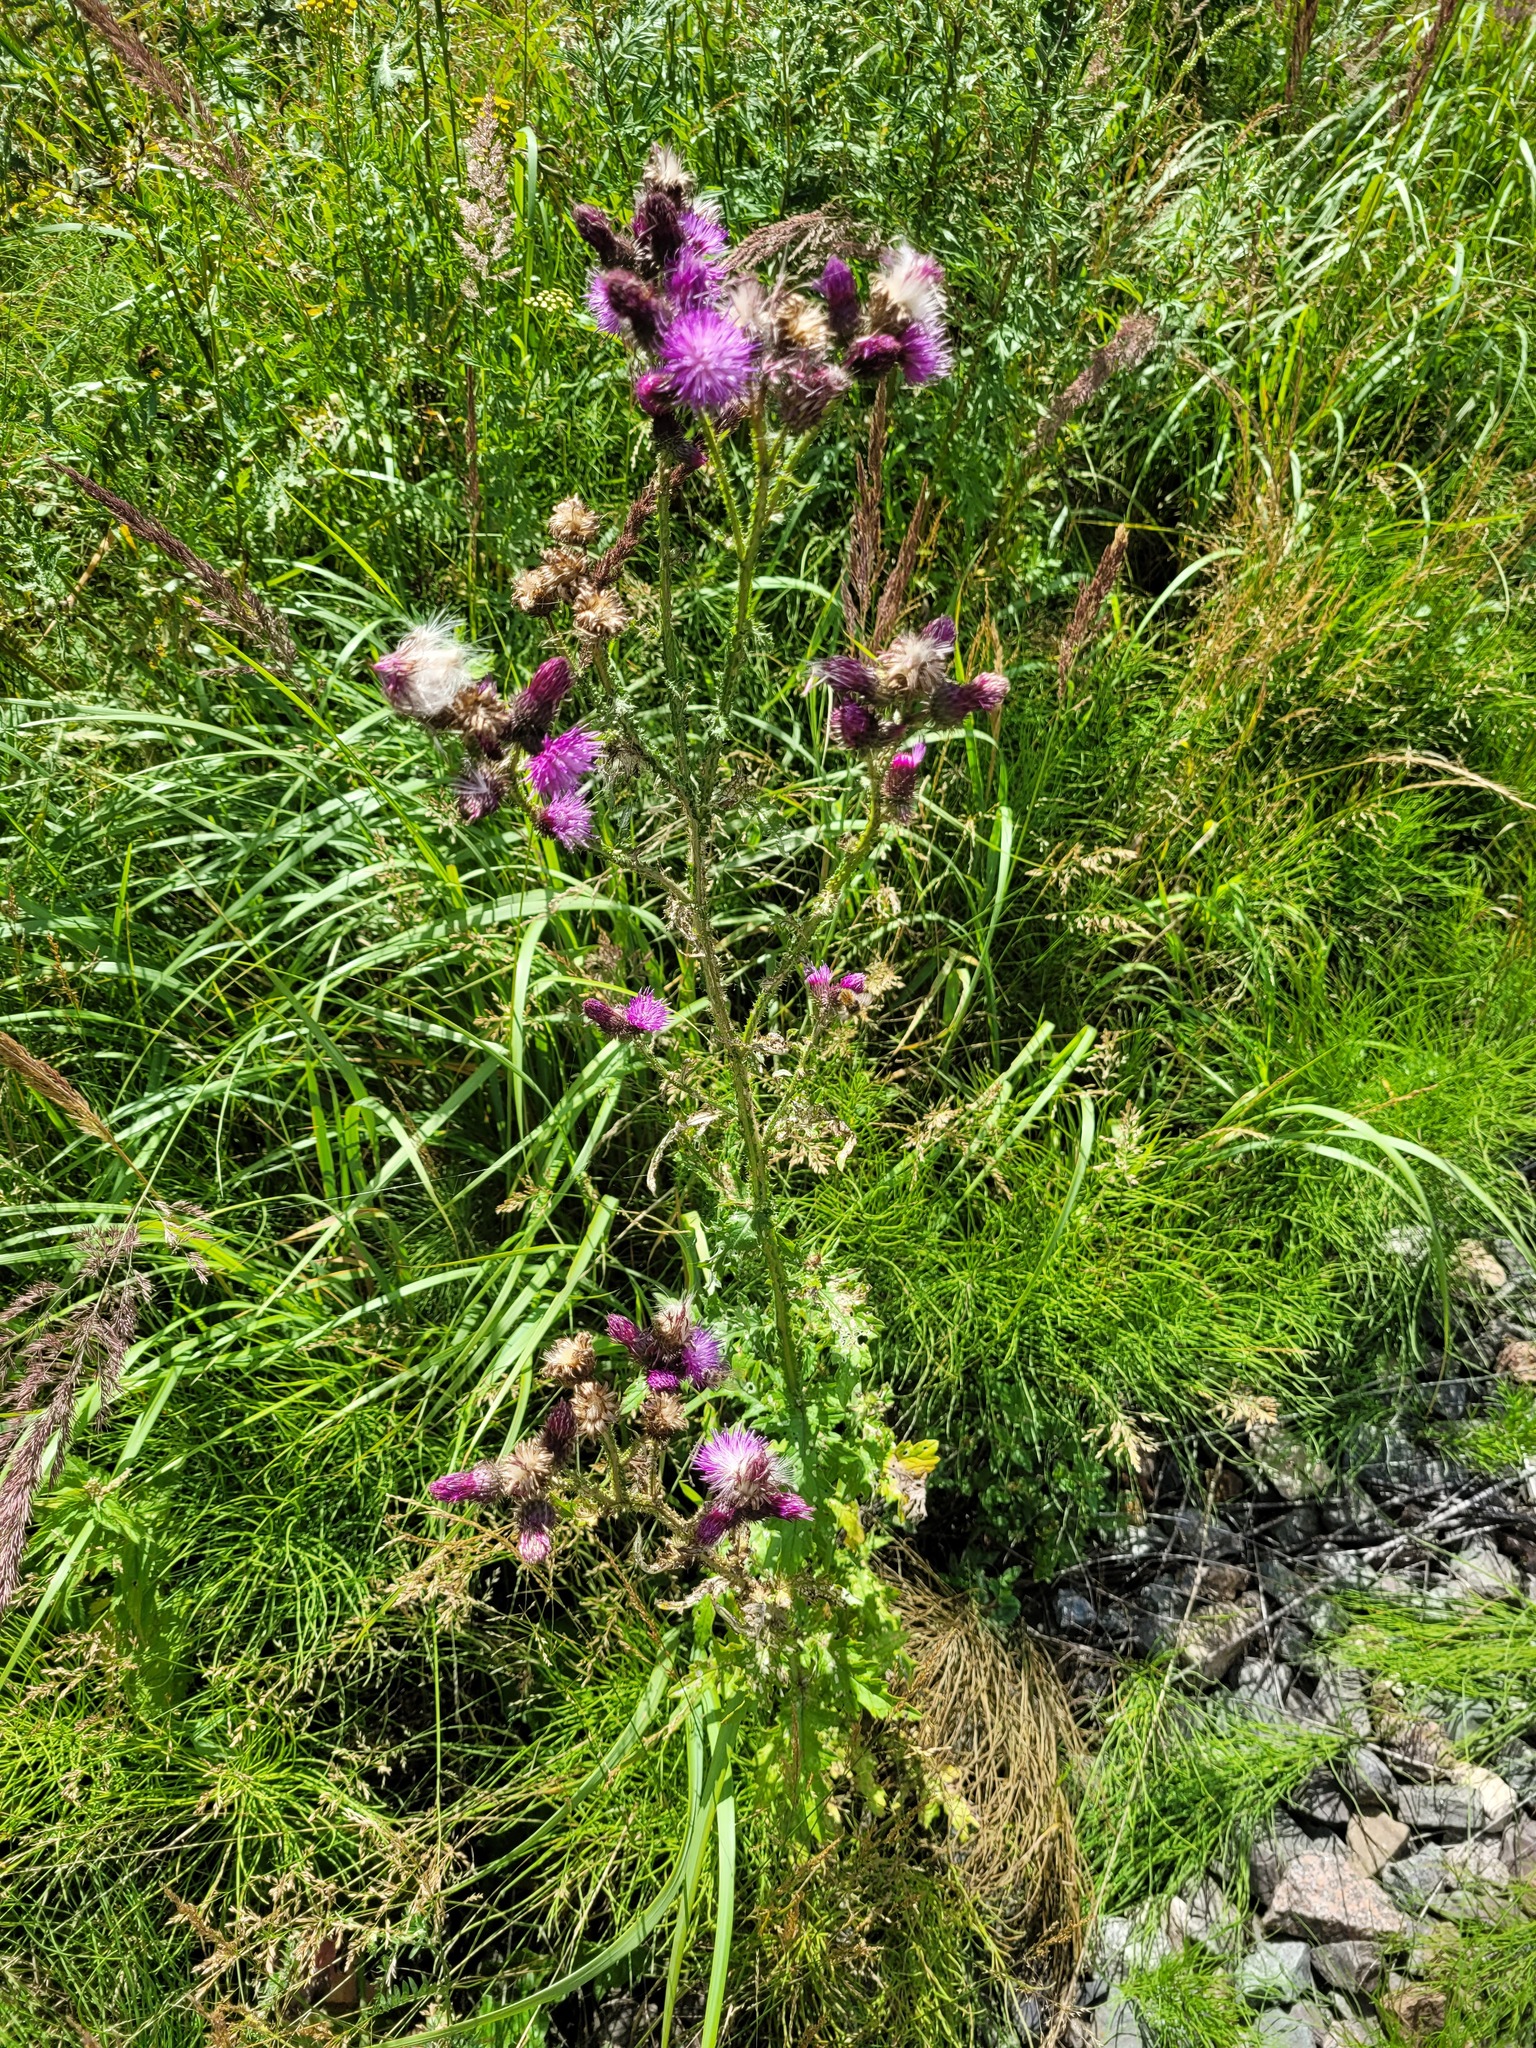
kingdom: Plantae
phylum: Tracheophyta
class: Magnoliopsida
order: Asterales
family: Asteraceae
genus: Carduus
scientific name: Carduus crispus
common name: Welted thistle
